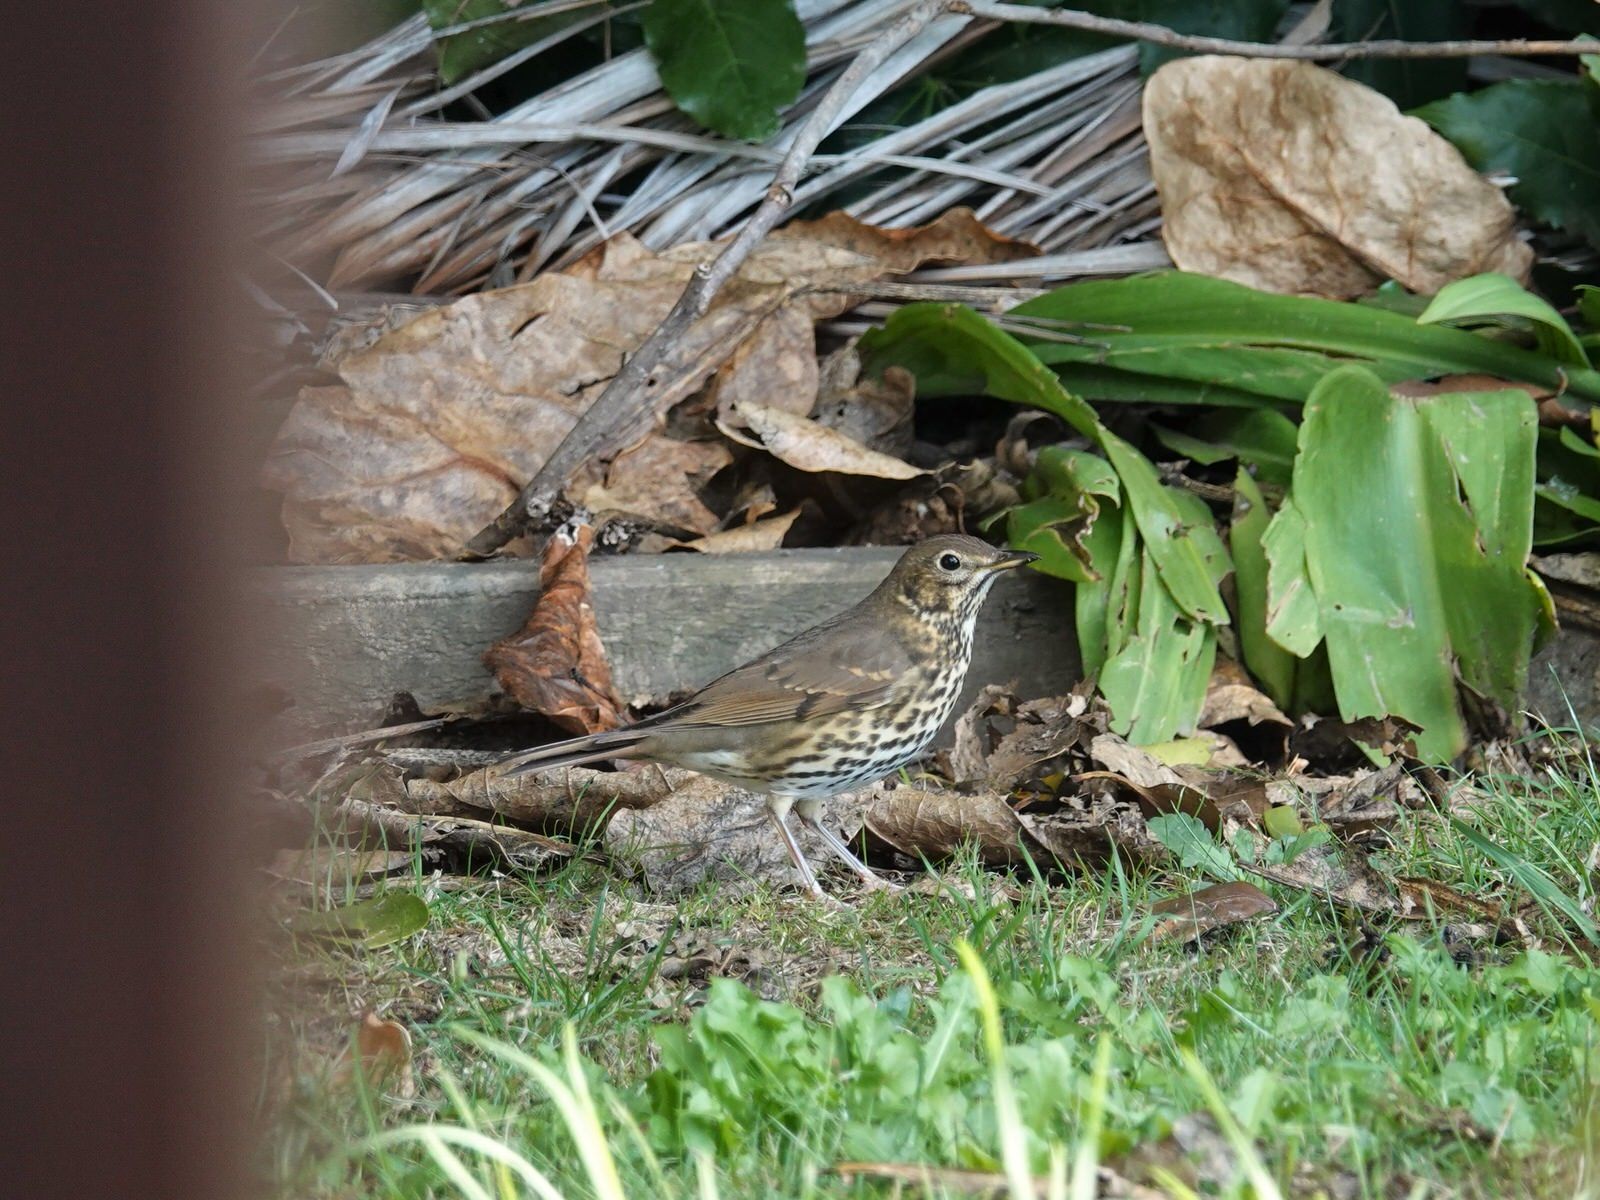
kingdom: Animalia
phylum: Chordata
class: Aves
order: Passeriformes
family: Turdidae
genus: Turdus
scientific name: Turdus philomelos
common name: Song thrush
